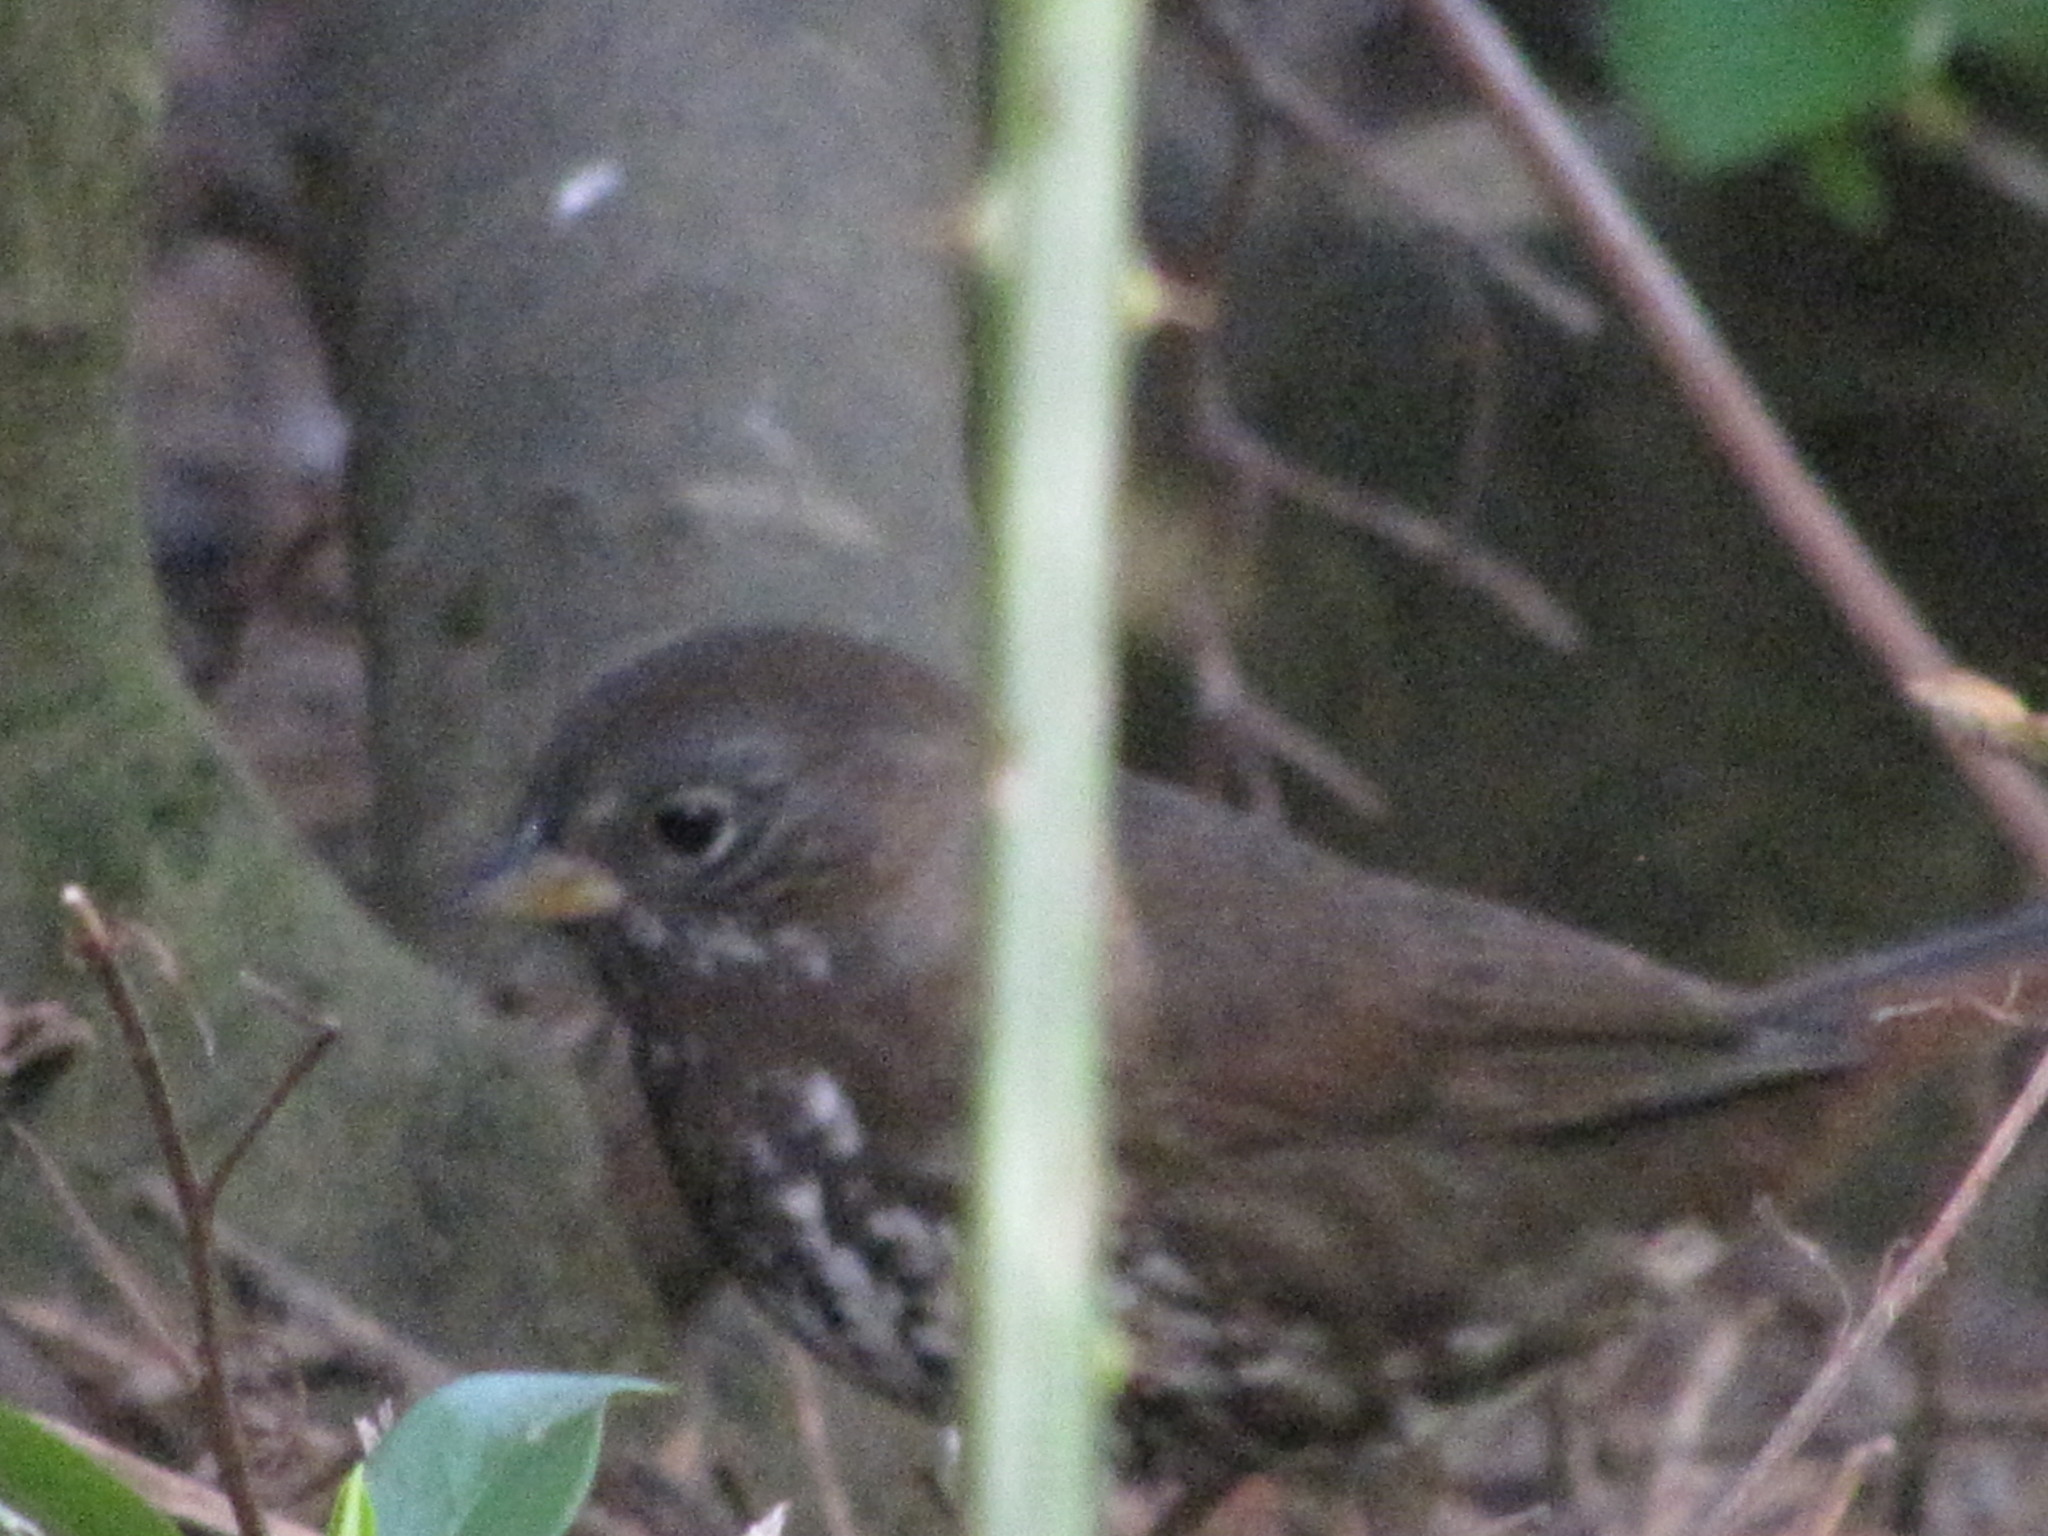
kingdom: Animalia
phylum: Chordata
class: Aves
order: Passeriformes
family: Passerellidae
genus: Passerella
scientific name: Passerella iliaca
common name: Fox sparrow
